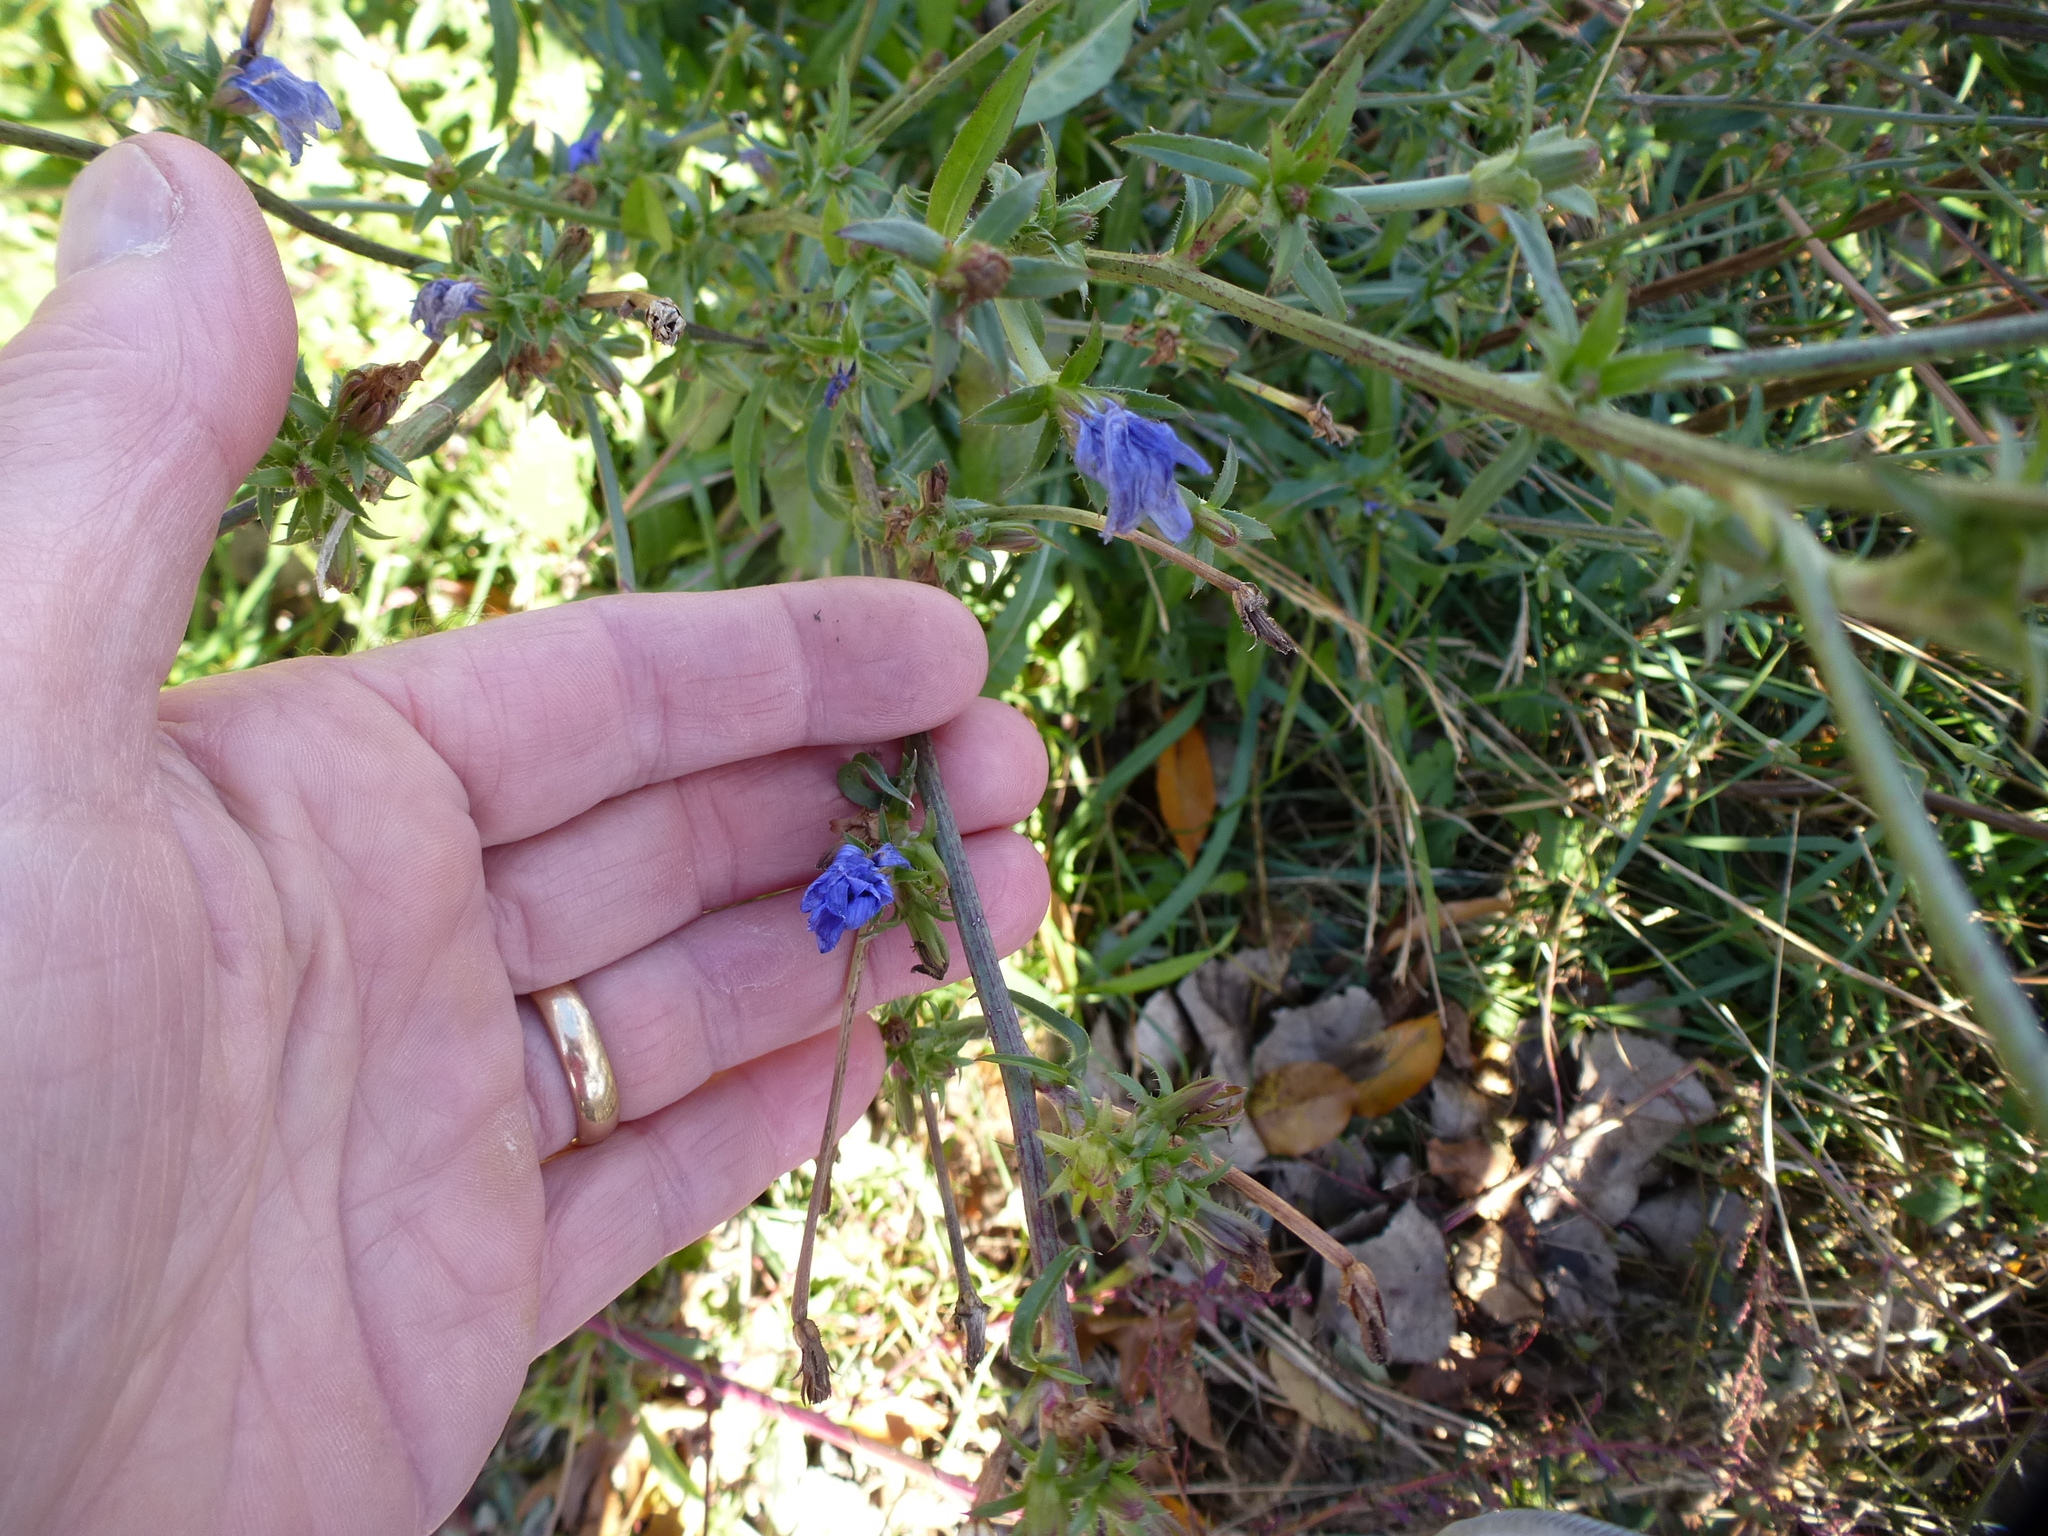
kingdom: Plantae
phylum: Tracheophyta
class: Magnoliopsida
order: Asterales
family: Asteraceae
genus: Cichorium
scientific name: Cichorium intybus
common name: Chicory
